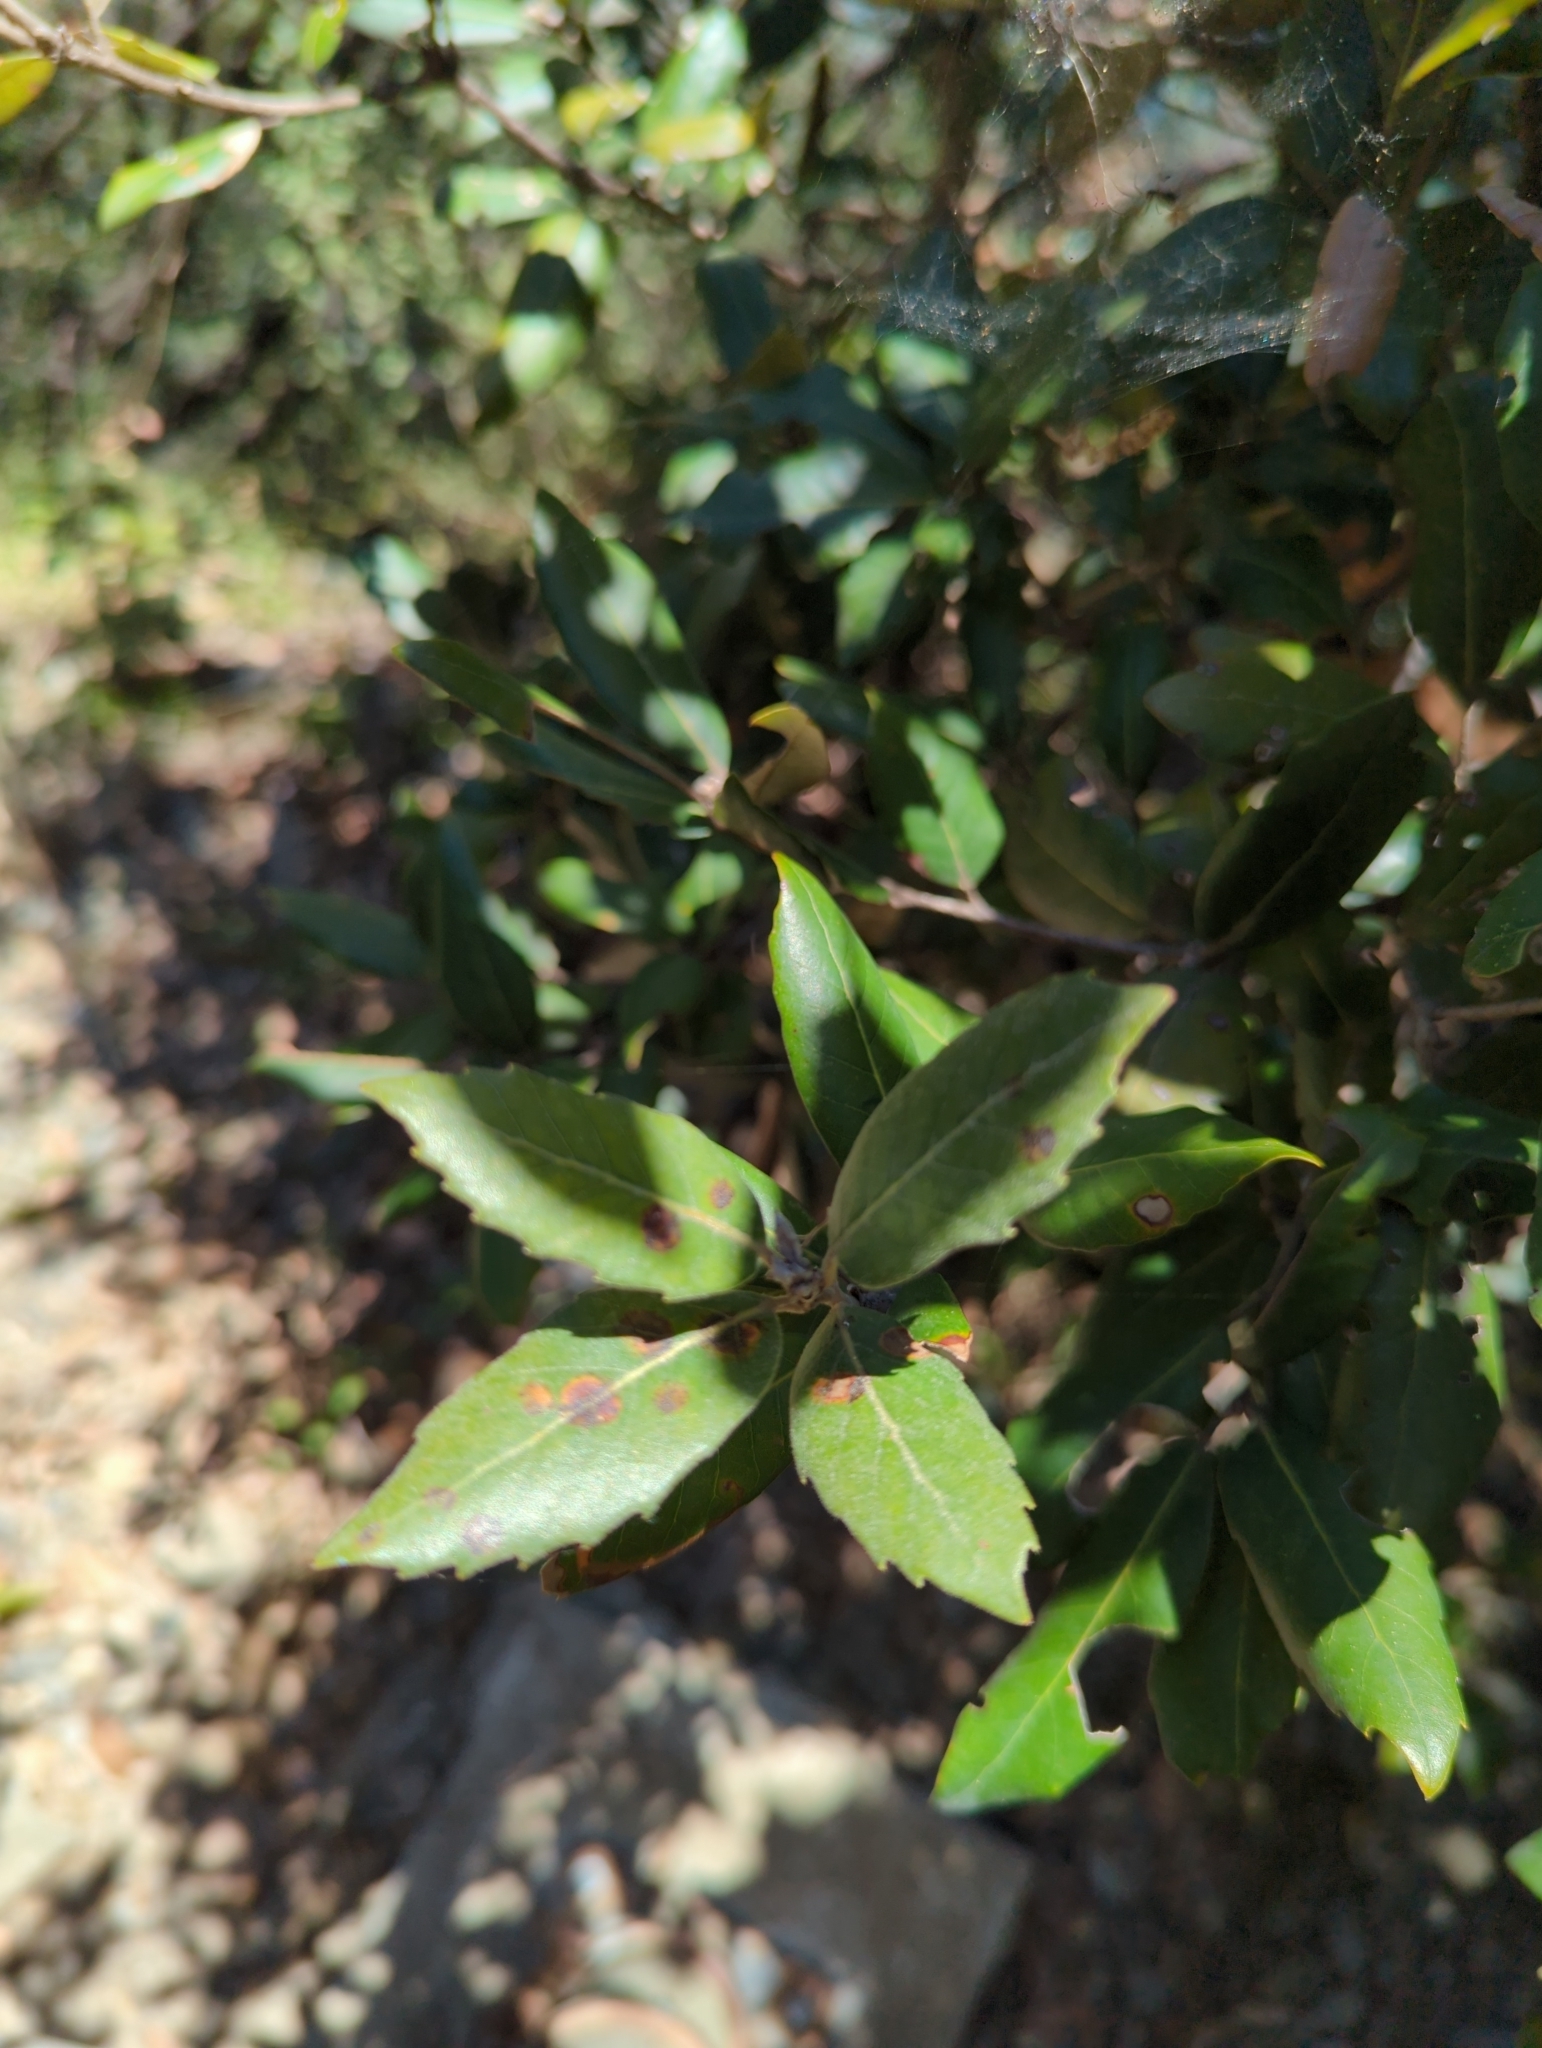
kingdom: Plantae
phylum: Tracheophyta
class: Magnoliopsida
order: Fagales
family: Fagaceae
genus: Quercus
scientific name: Quercus ilex
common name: Evergreen oak
